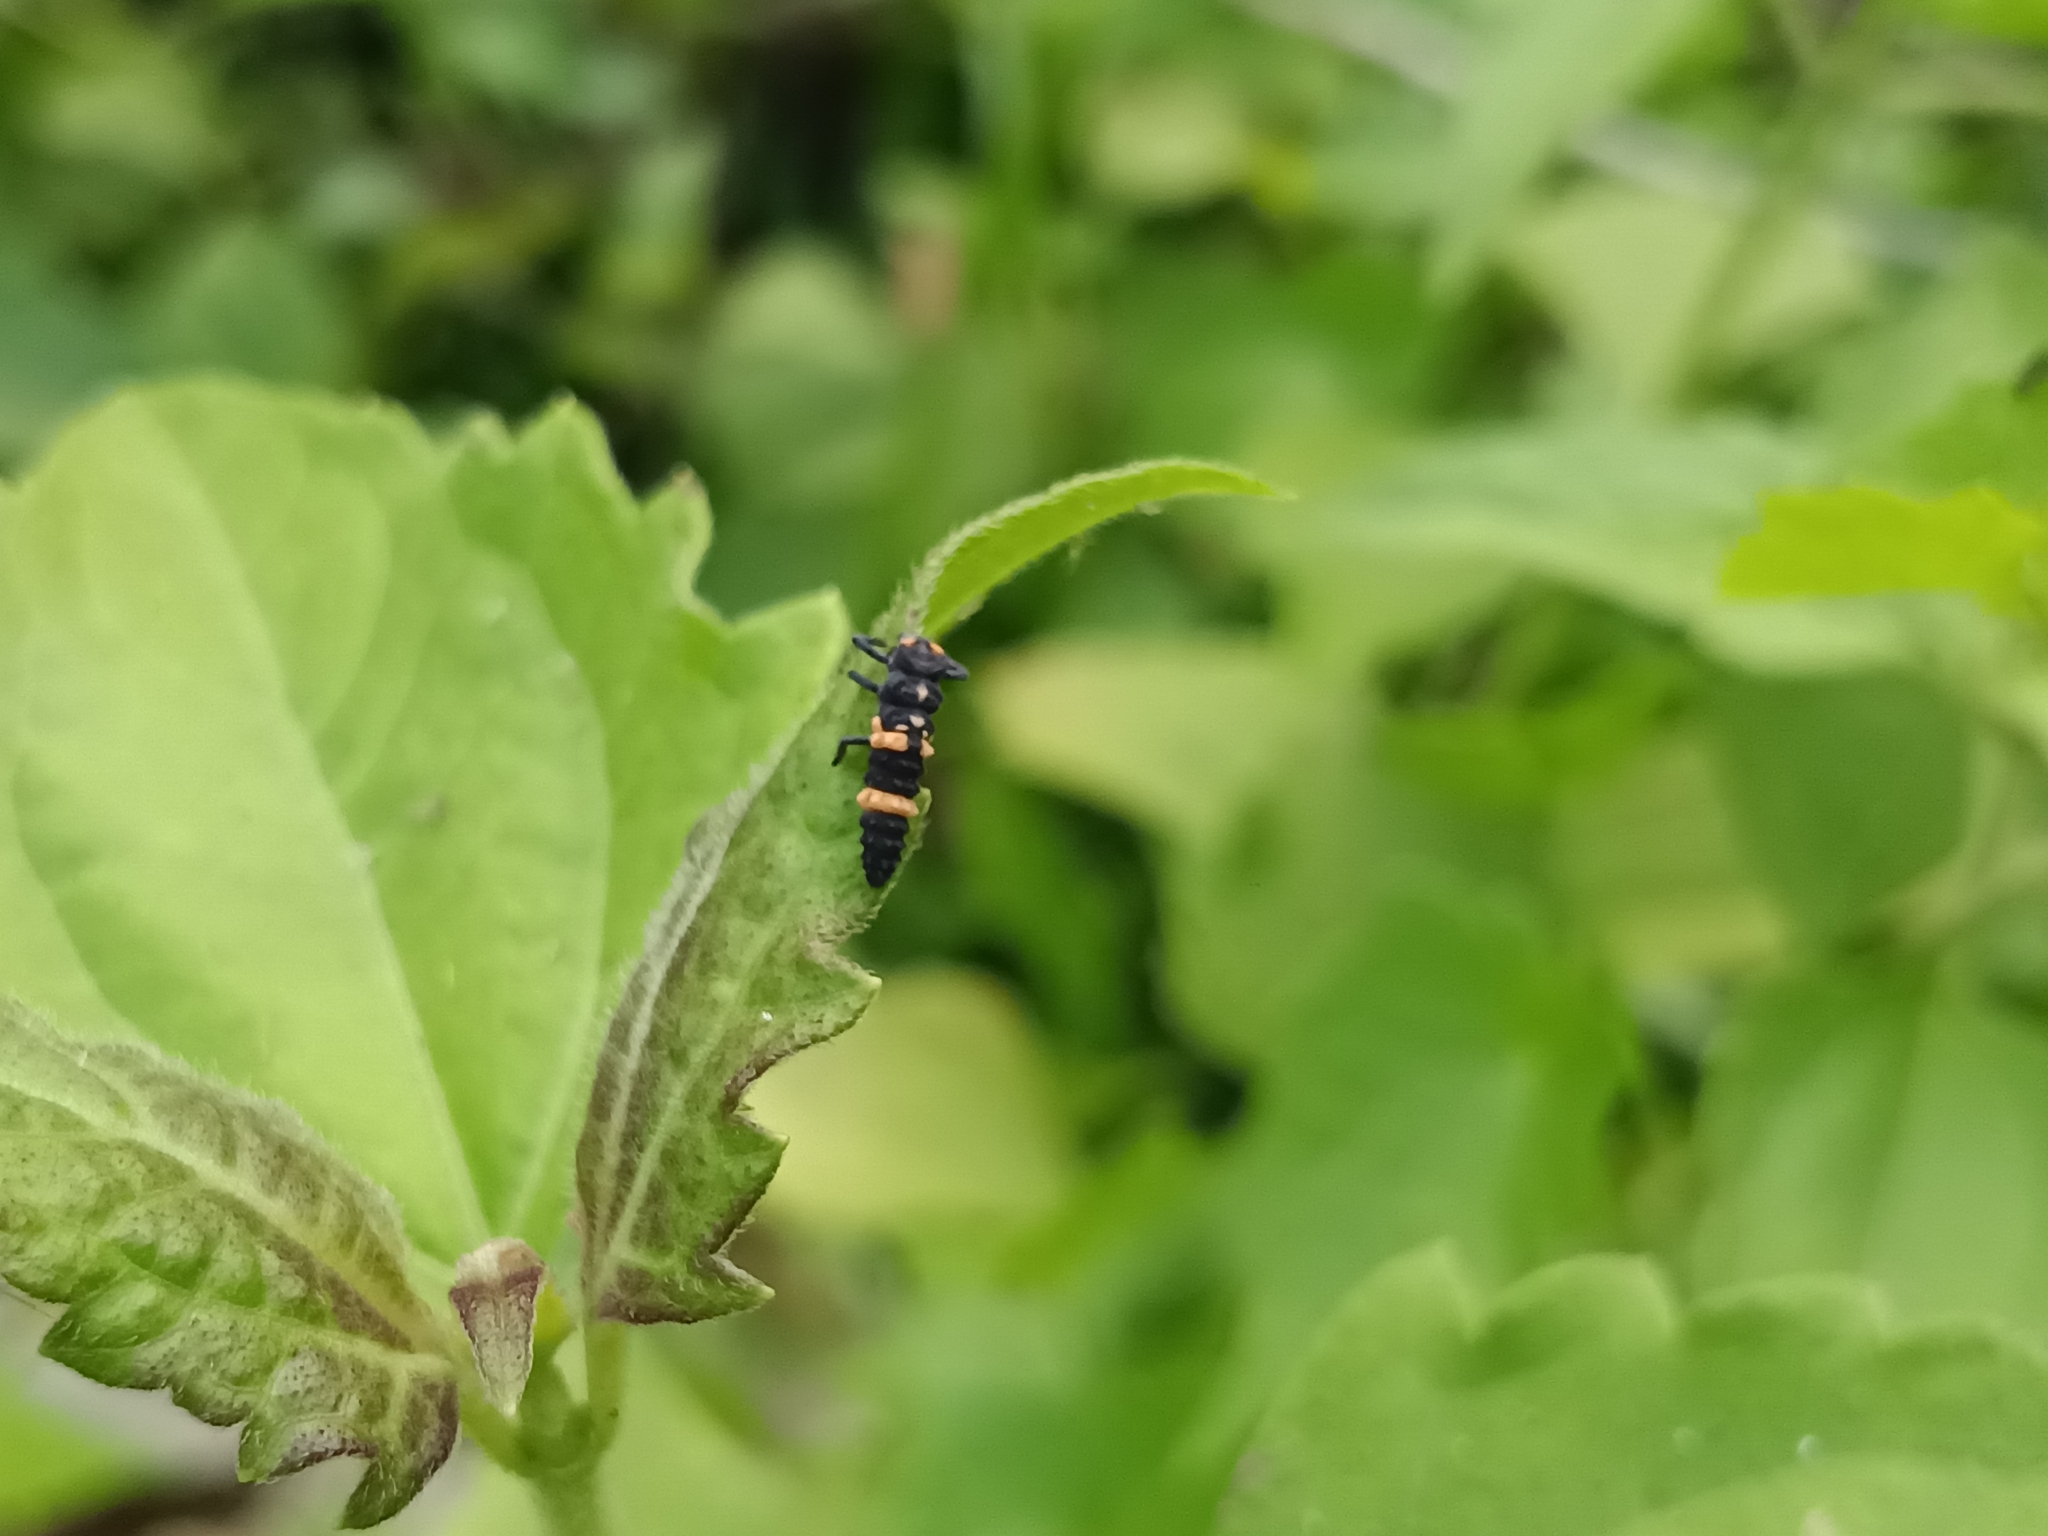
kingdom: Animalia
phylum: Arthropoda
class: Insecta
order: Coleoptera
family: Coccinellidae
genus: Coccinella
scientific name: Coccinella transversalis
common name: Transverse lady beetle
